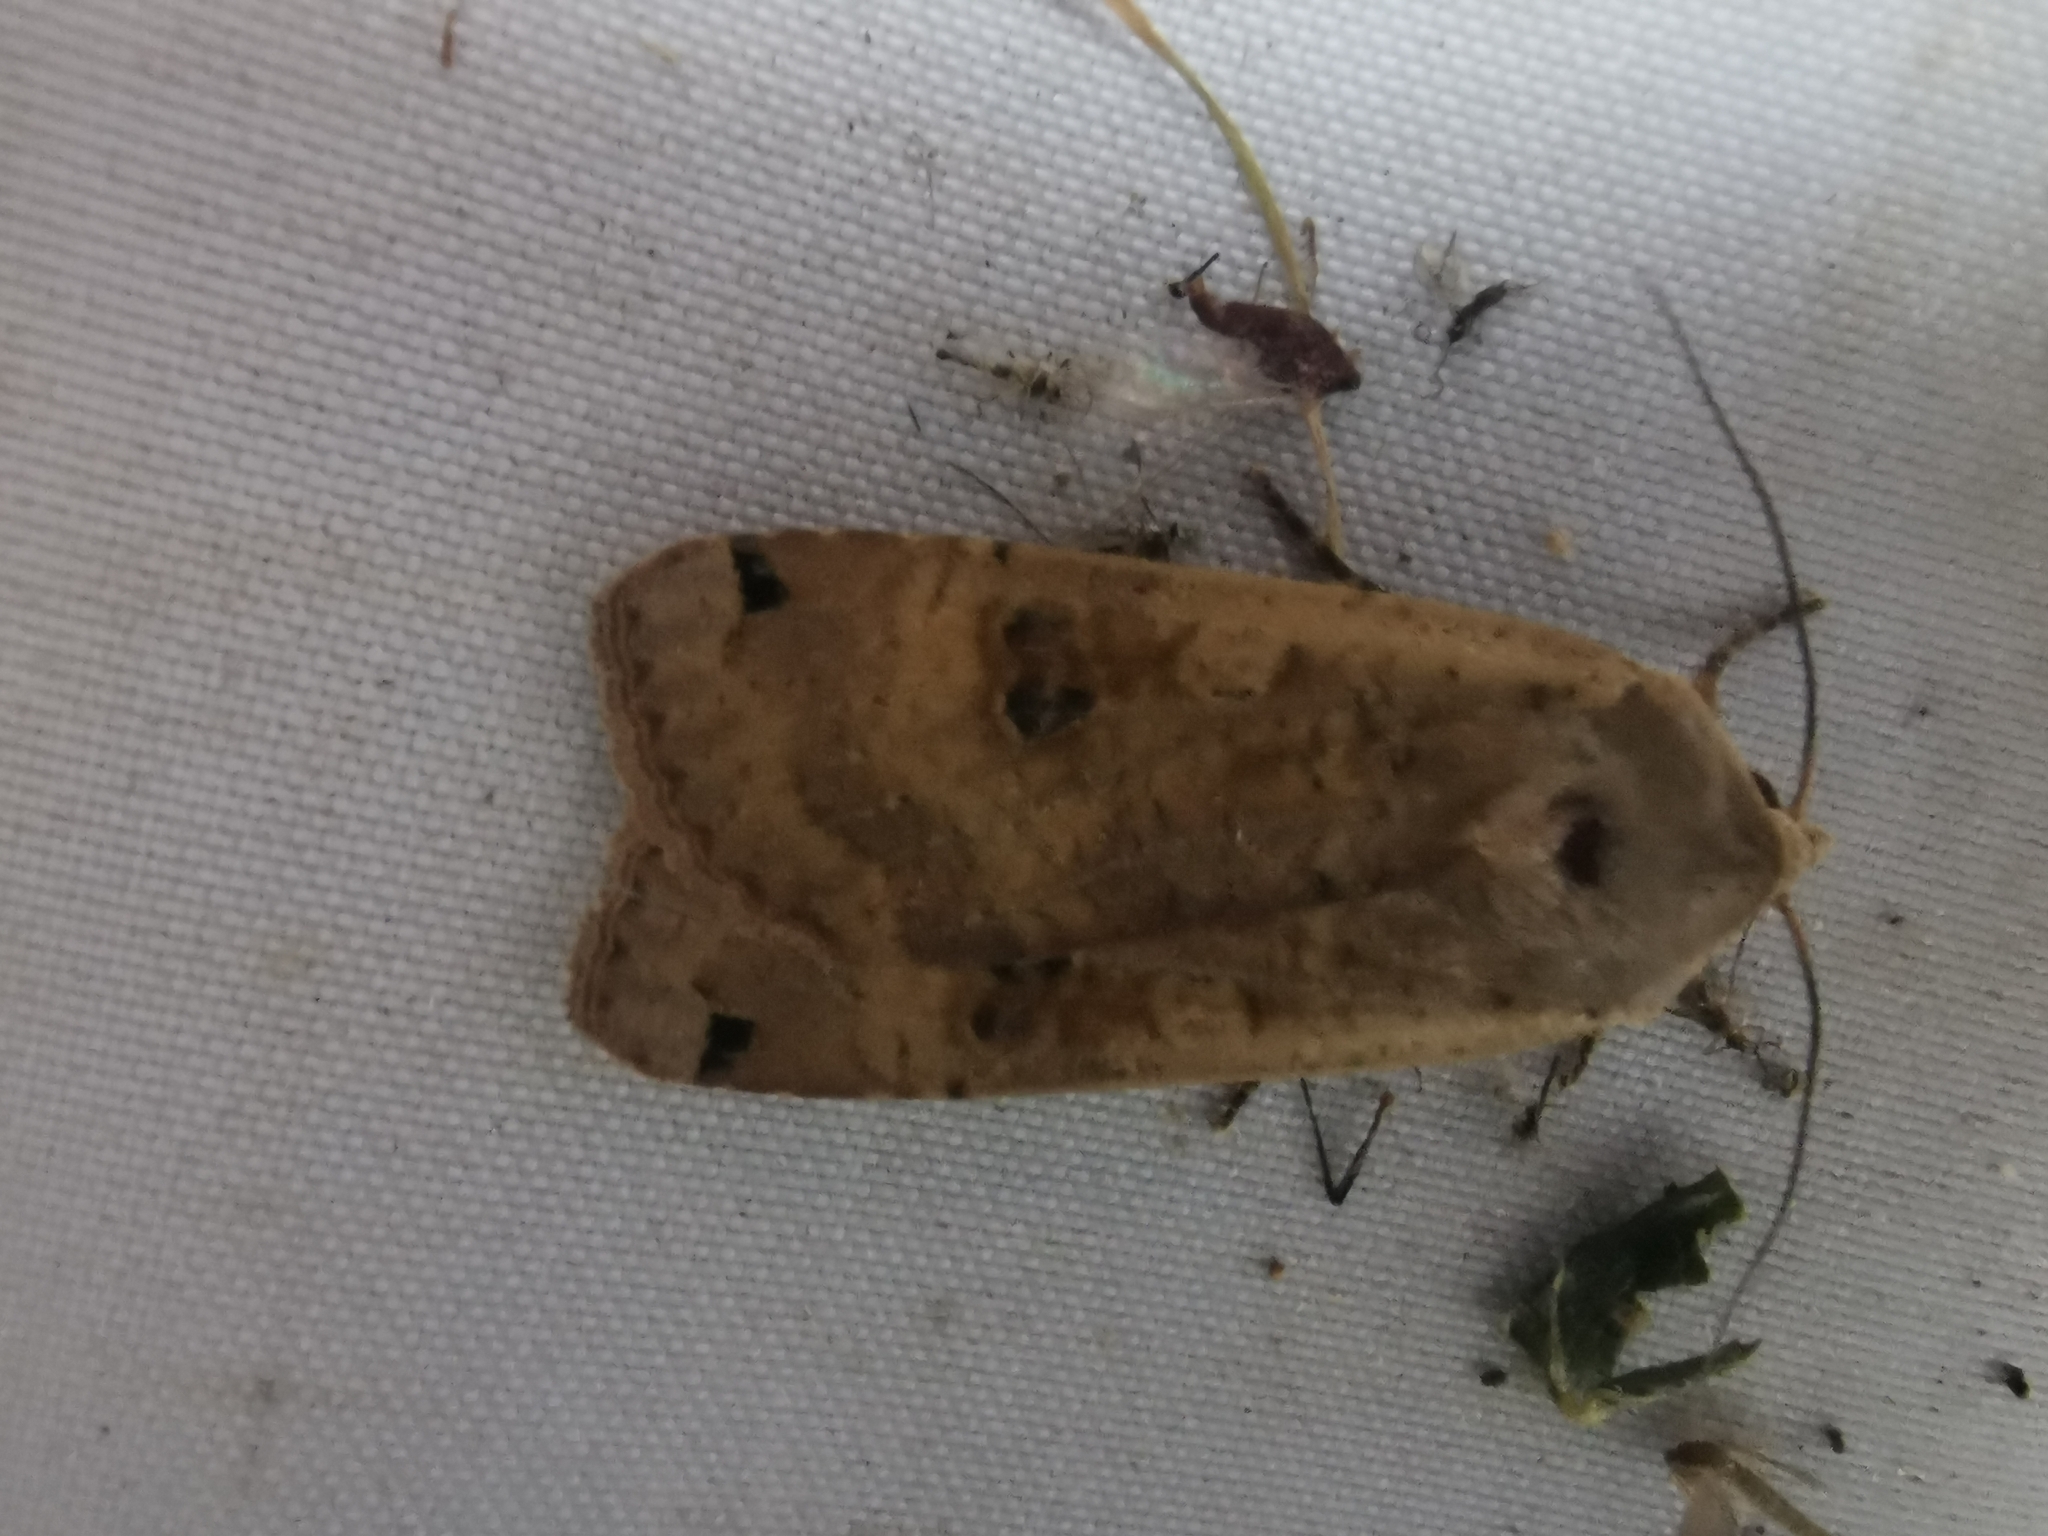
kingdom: Animalia
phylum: Arthropoda
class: Insecta
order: Lepidoptera
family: Noctuidae
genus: Noctua
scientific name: Noctua pronuba
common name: Large yellow underwing
